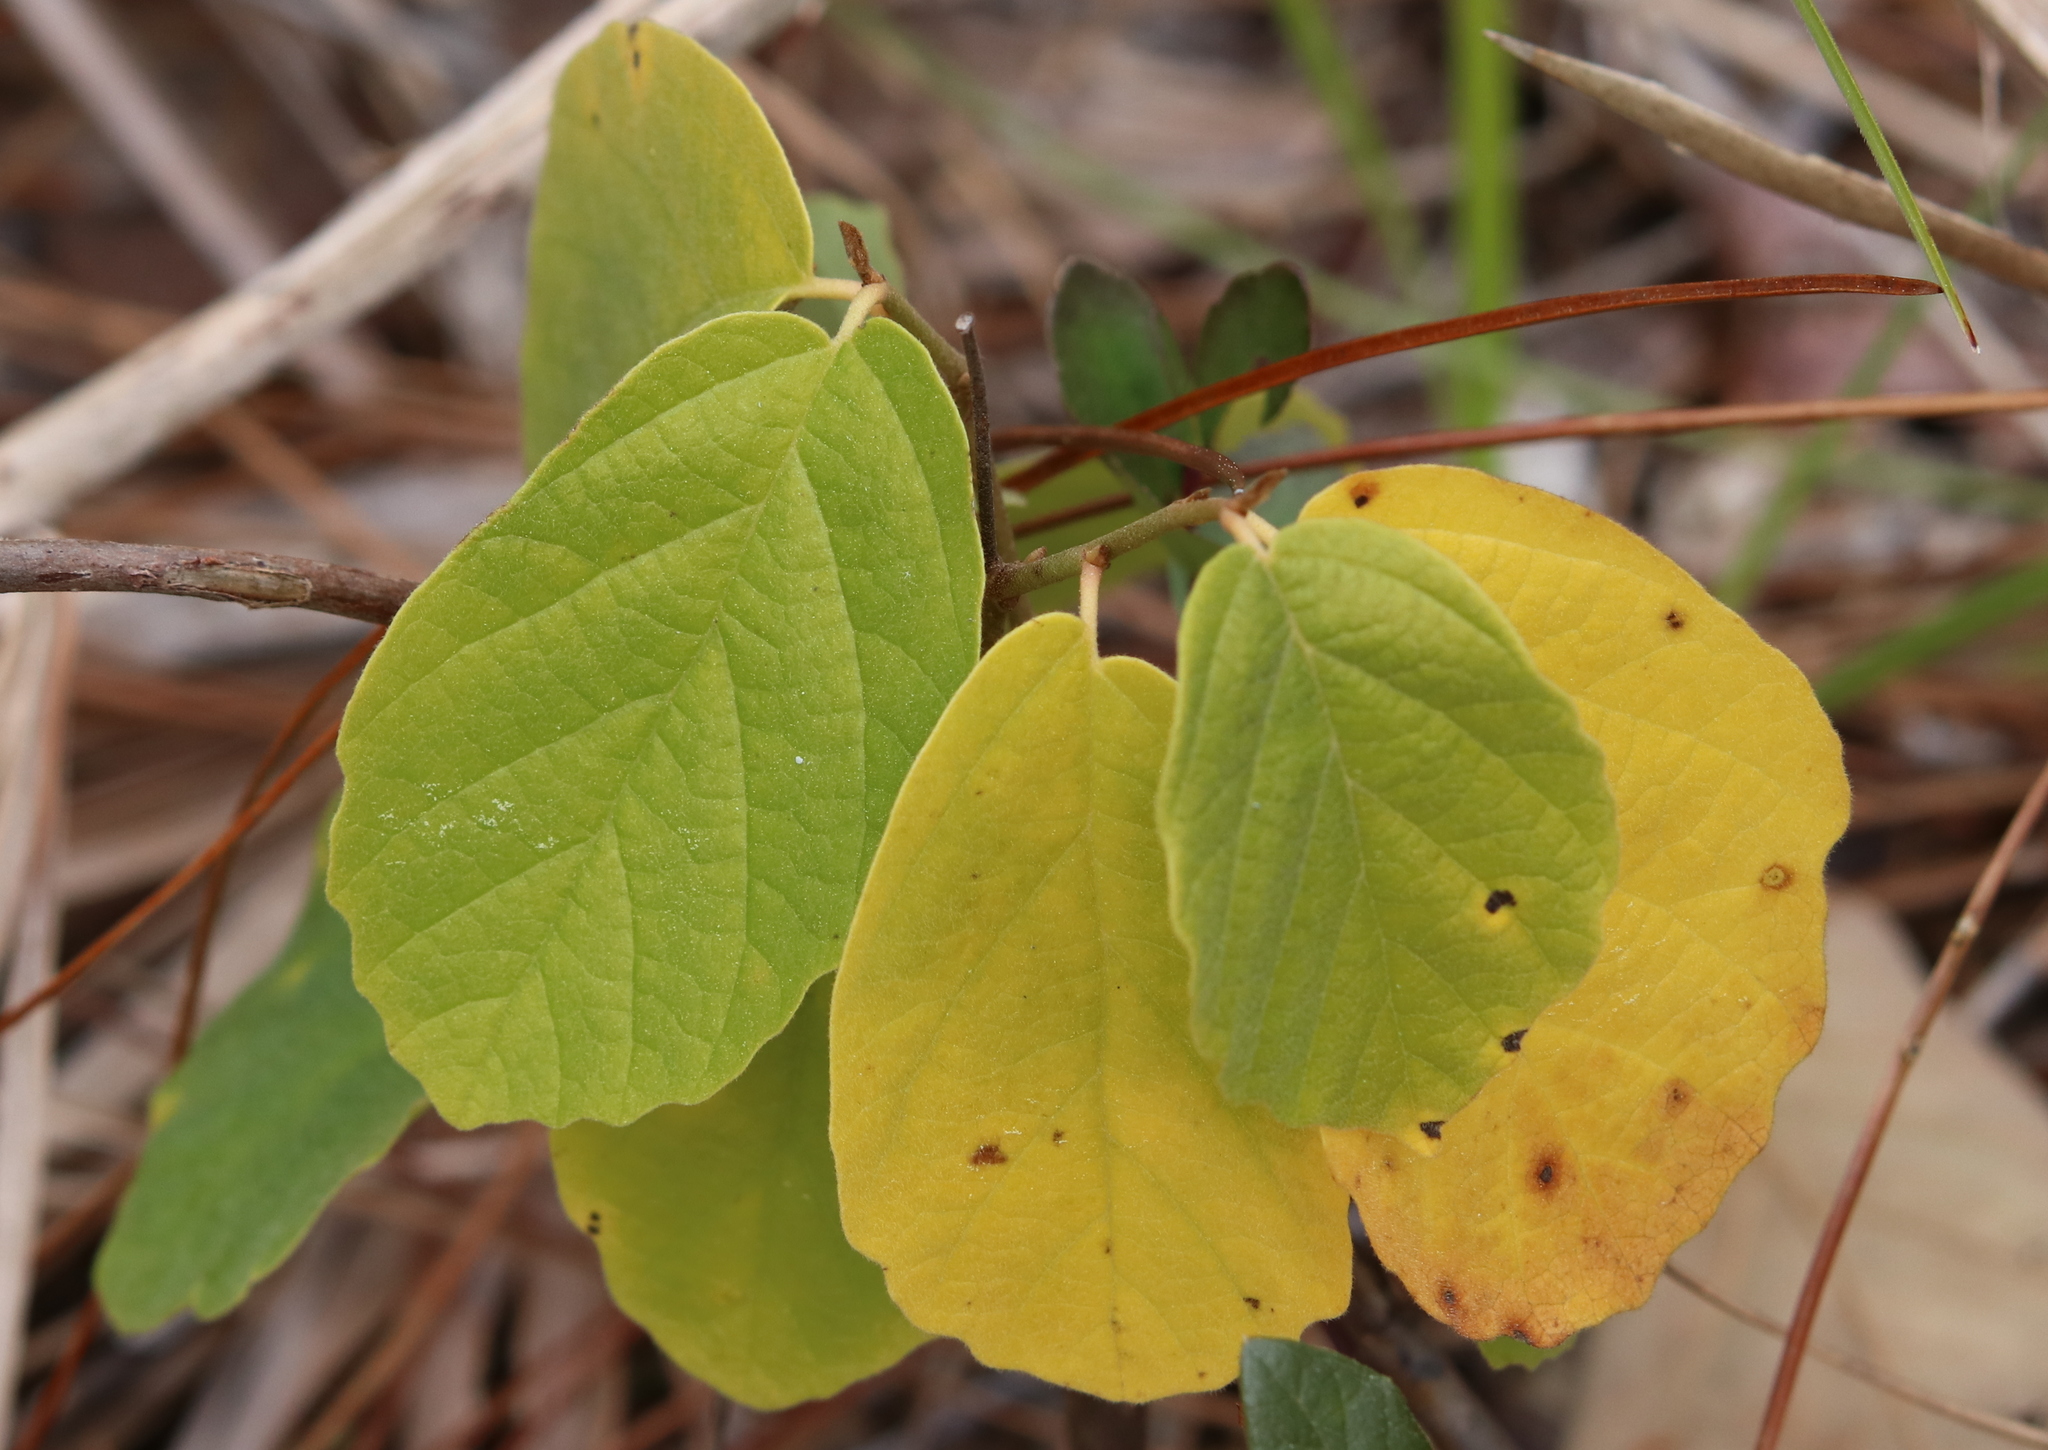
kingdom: Plantae
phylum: Tracheophyta
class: Magnoliopsida
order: Saxifragales
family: Hamamelidaceae
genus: Hamamelis
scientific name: Hamamelis virginiana
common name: Witch-hazel
